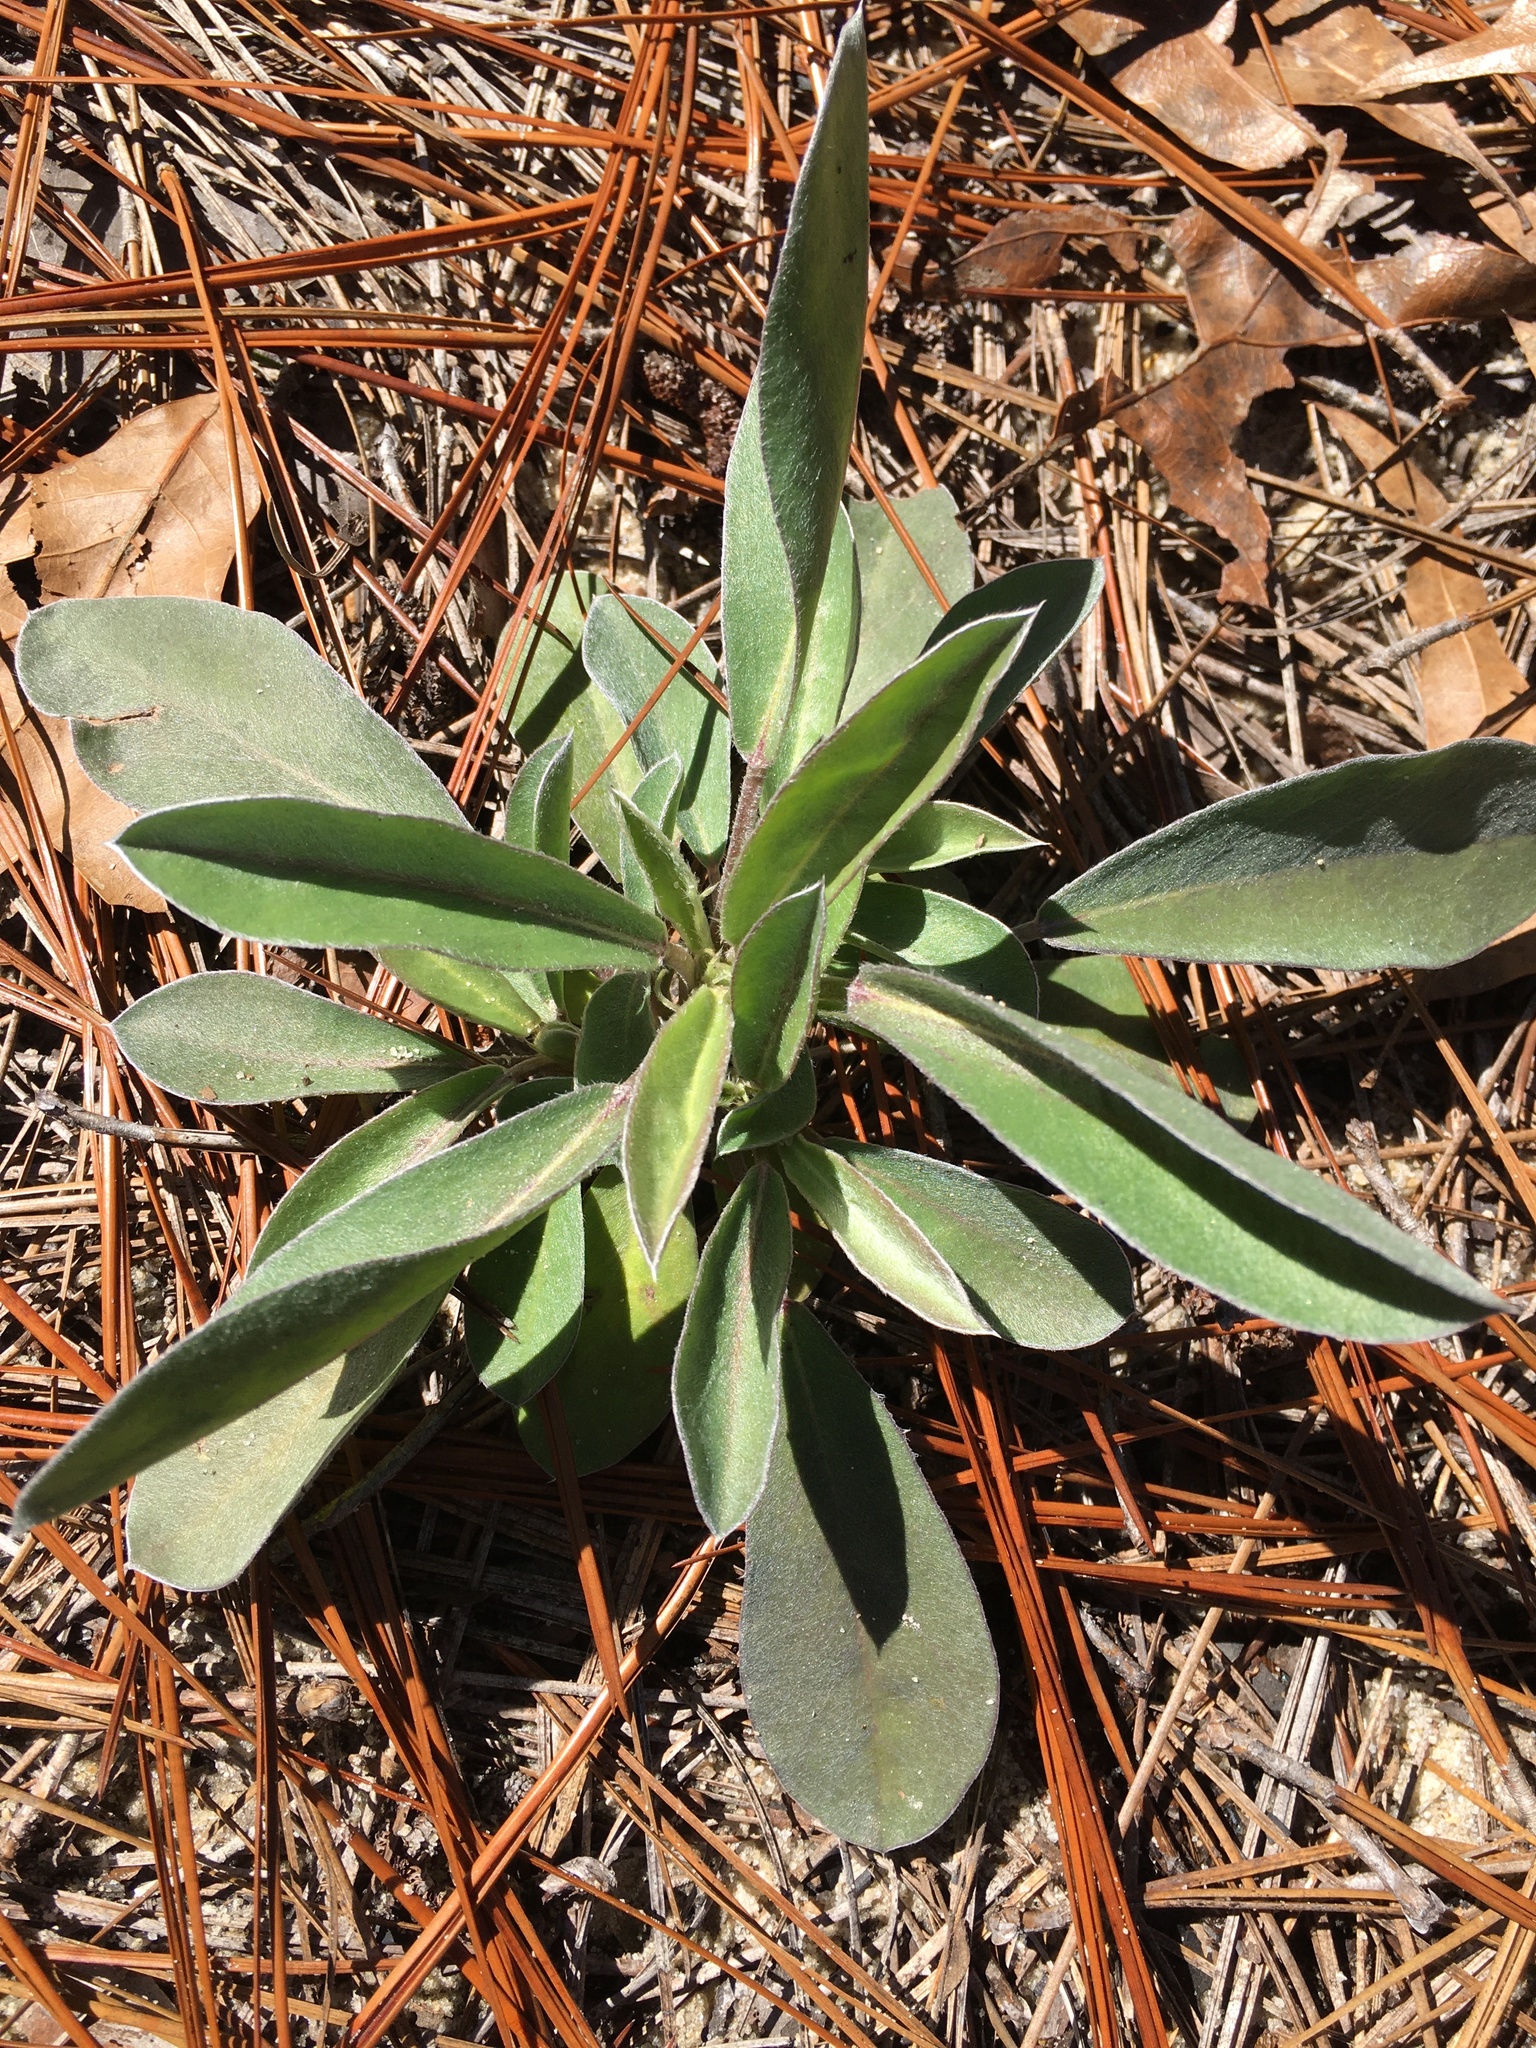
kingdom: Plantae
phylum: Tracheophyta
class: Magnoliopsida
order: Fabales
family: Fabaceae
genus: Lupinus
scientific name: Lupinus diffusus
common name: Oak ridge lupine
